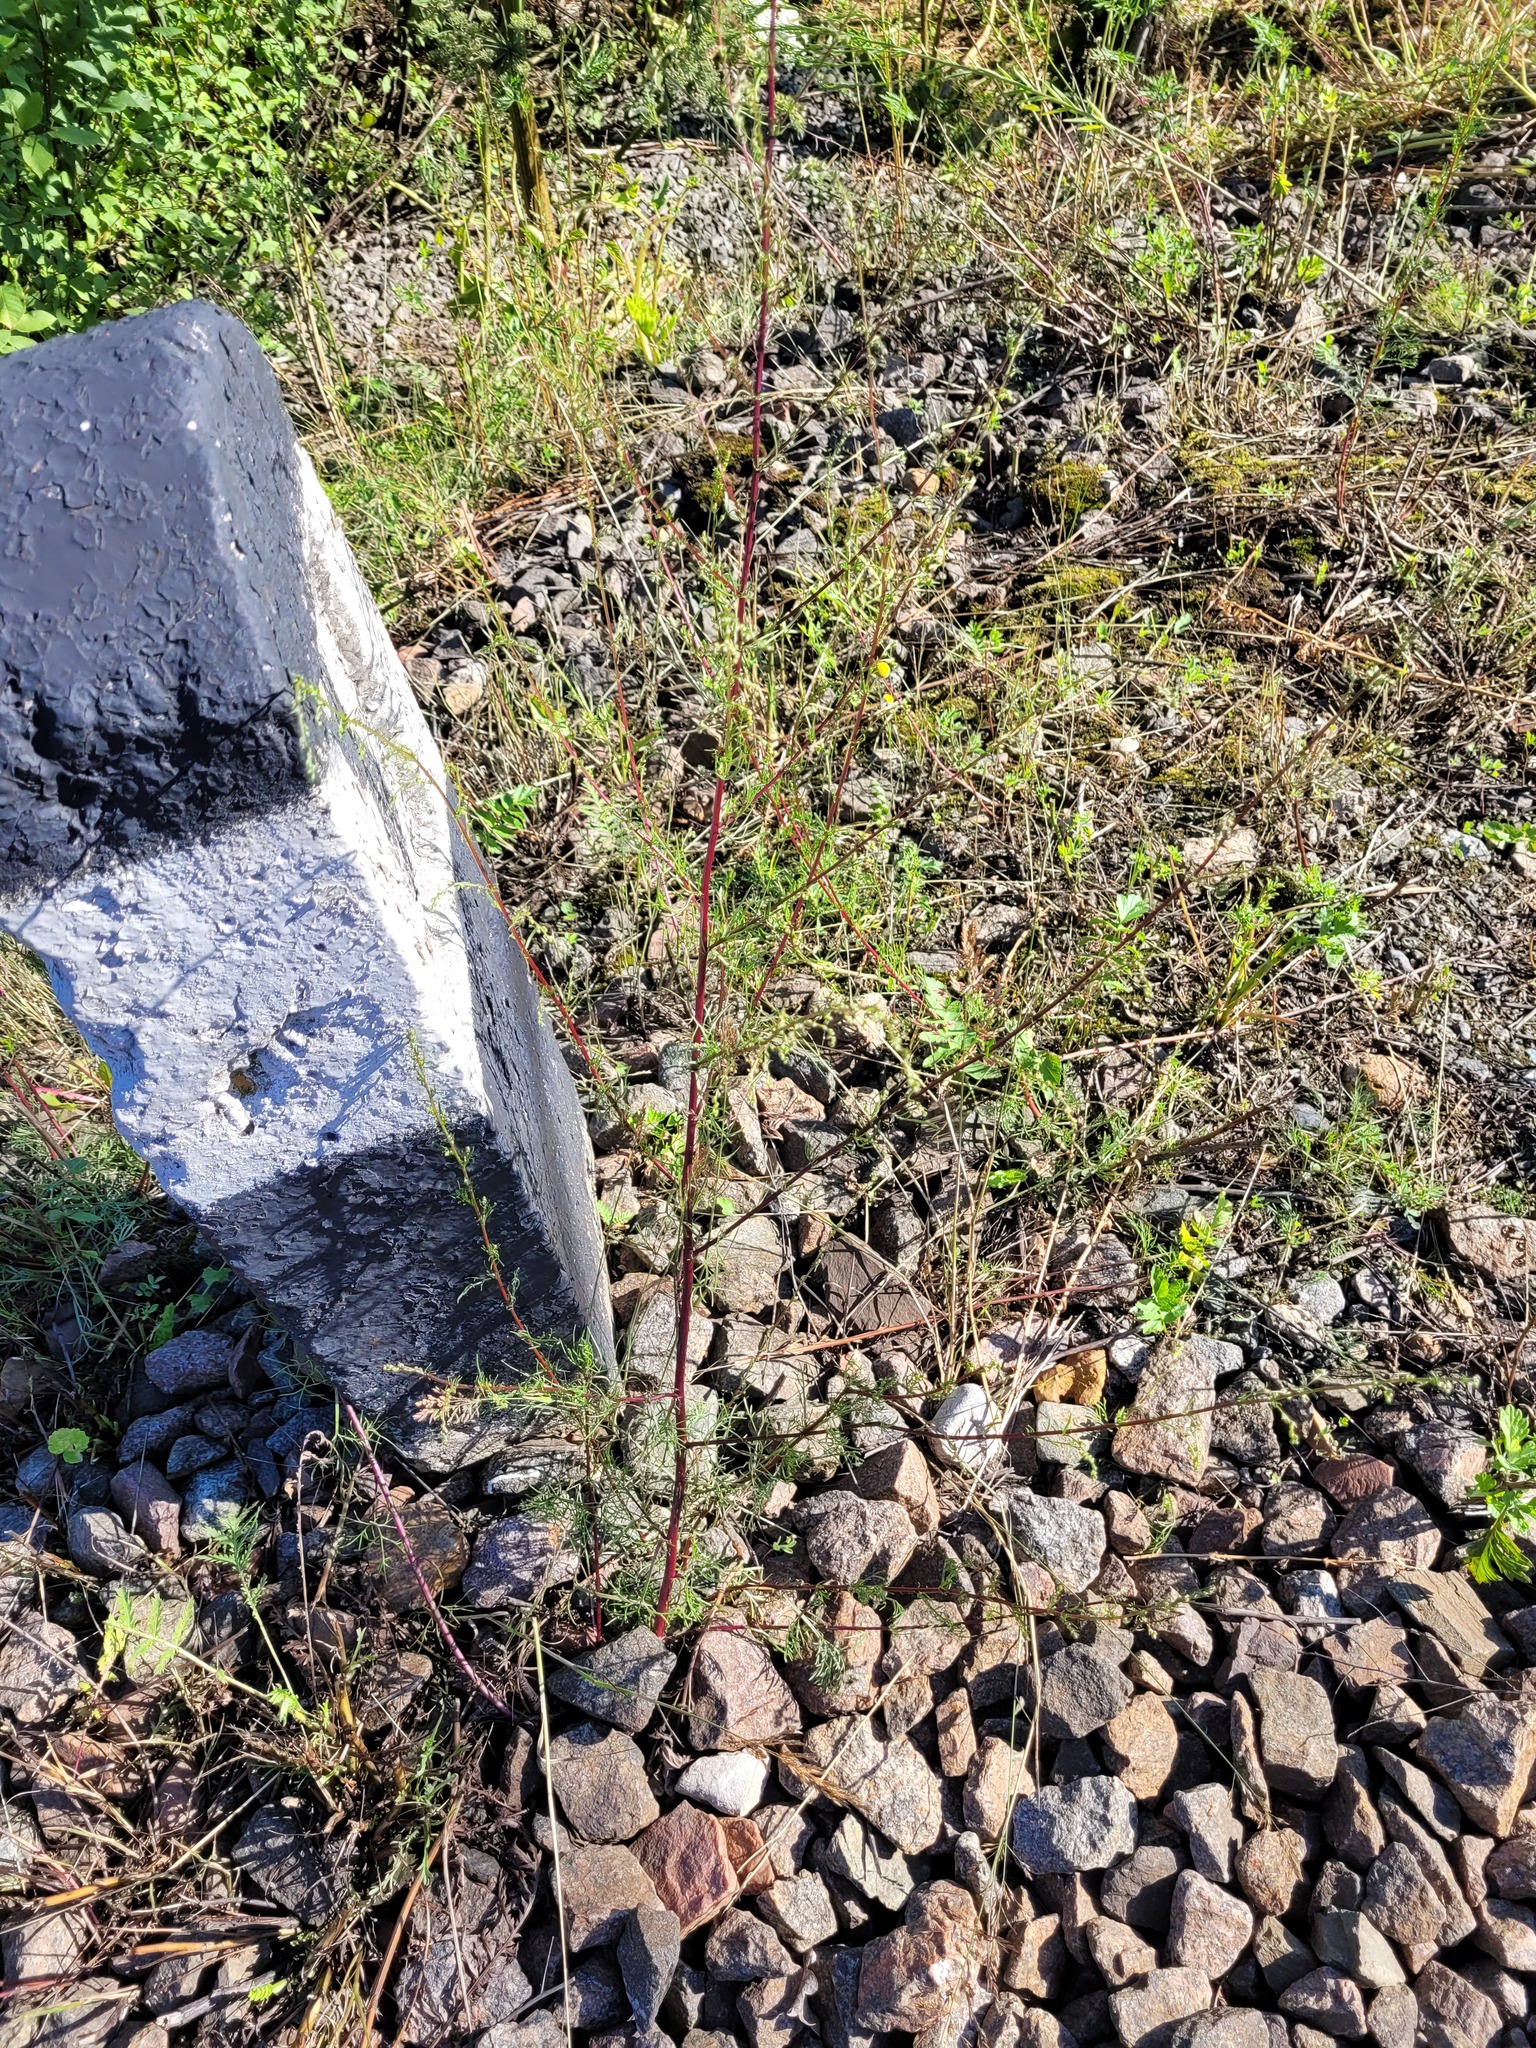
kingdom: Plantae
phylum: Tracheophyta
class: Magnoliopsida
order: Asterales
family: Asteraceae
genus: Artemisia
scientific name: Artemisia campestris
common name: Field wormwood
